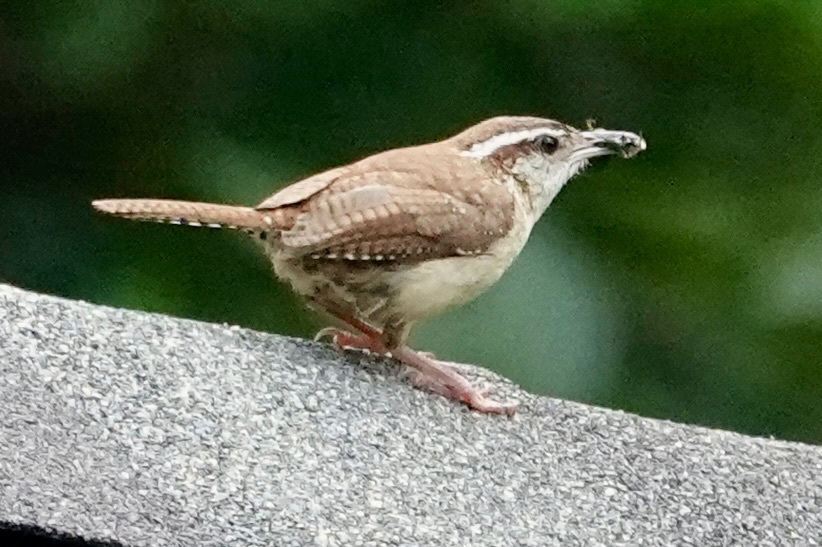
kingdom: Animalia
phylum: Chordata
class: Aves
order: Passeriformes
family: Troglodytidae
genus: Thryothorus
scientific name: Thryothorus ludovicianus
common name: Carolina wren
